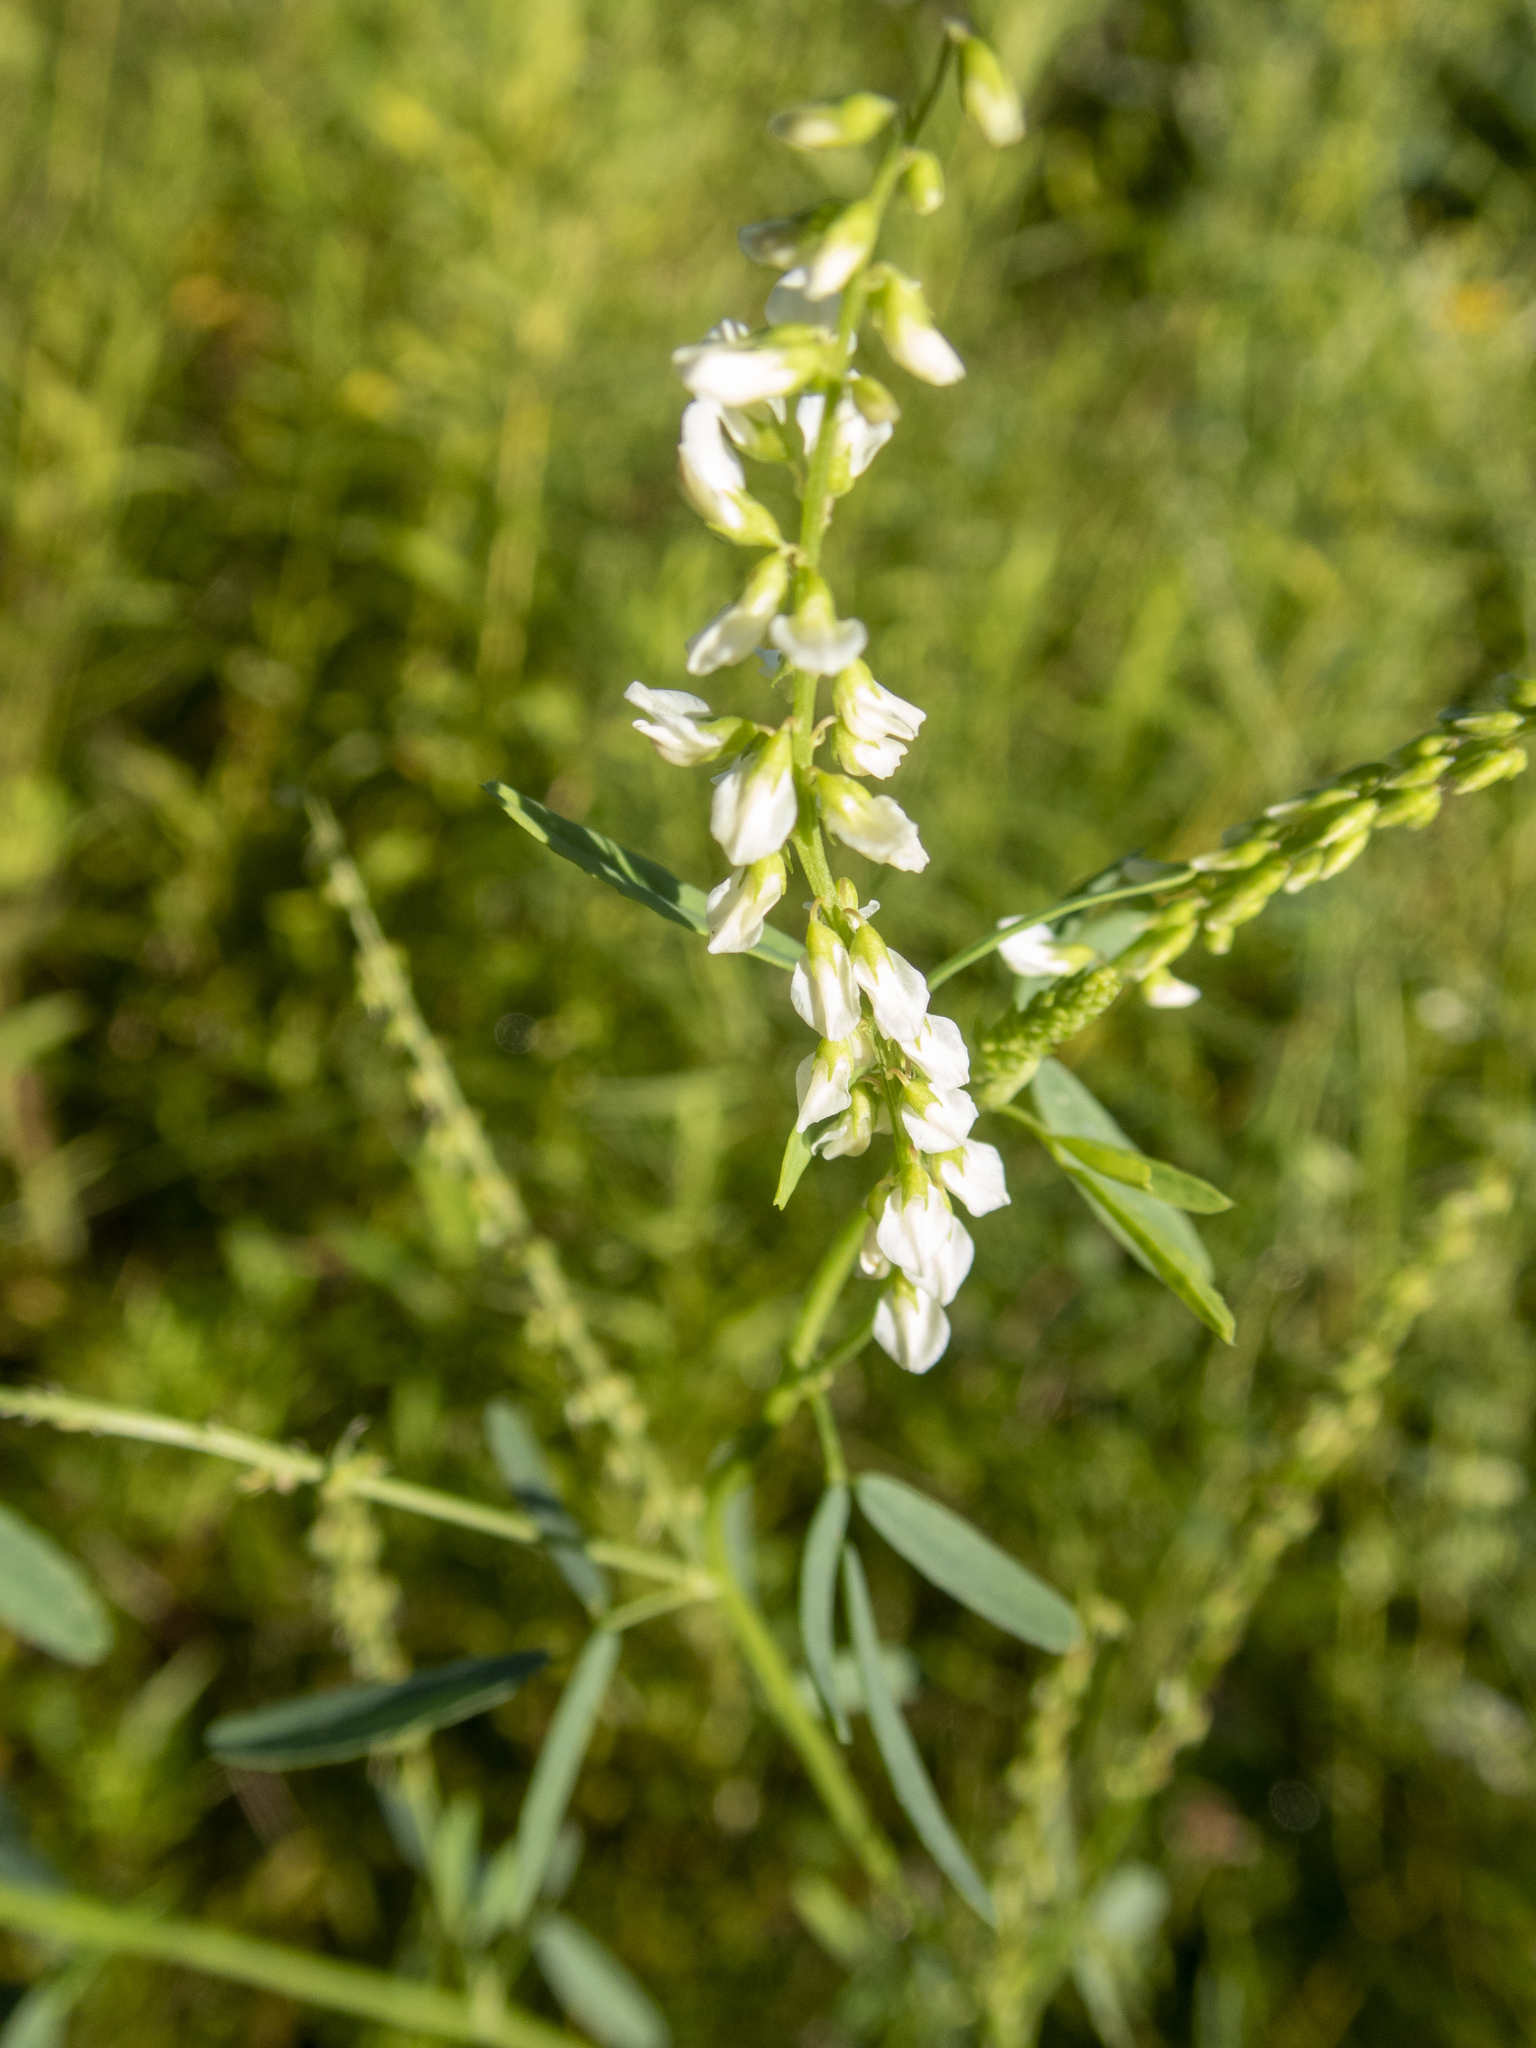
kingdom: Plantae
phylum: Tracheophyta
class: Magnoliopsida
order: Fabales
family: Fabaceae
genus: Melilotus
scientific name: Melilotus albus
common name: White melilot
